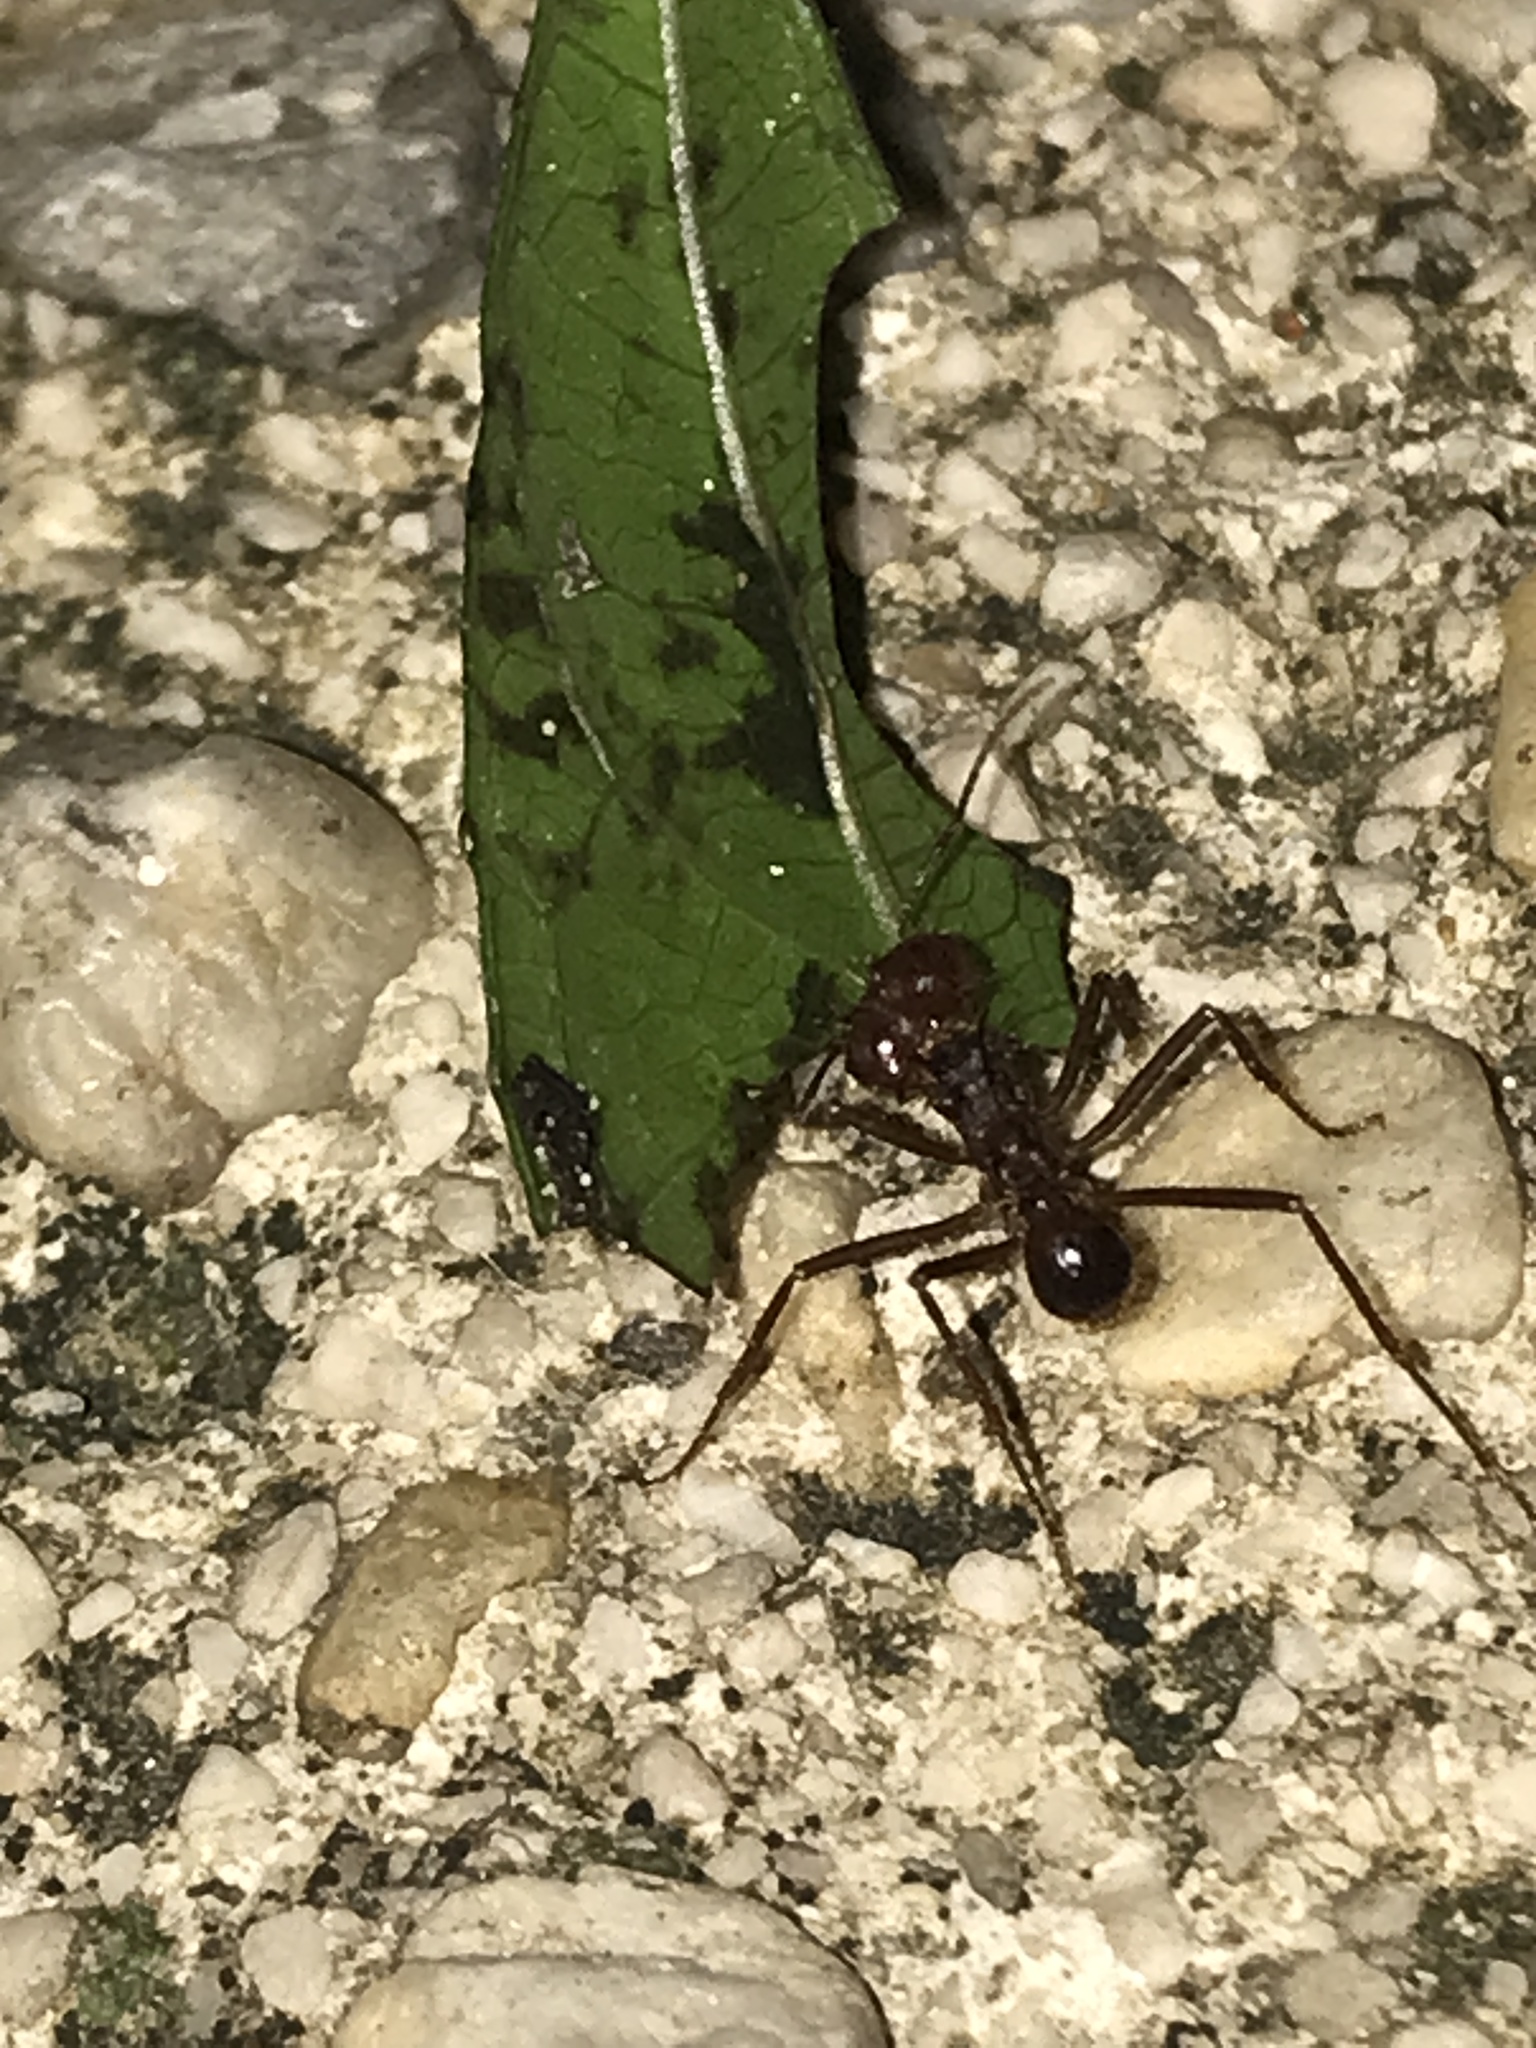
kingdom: Animalia
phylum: Arthropoda
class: Insecta
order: Hymenoptera
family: Formicidae
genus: Atta
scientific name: Atta mexicana
